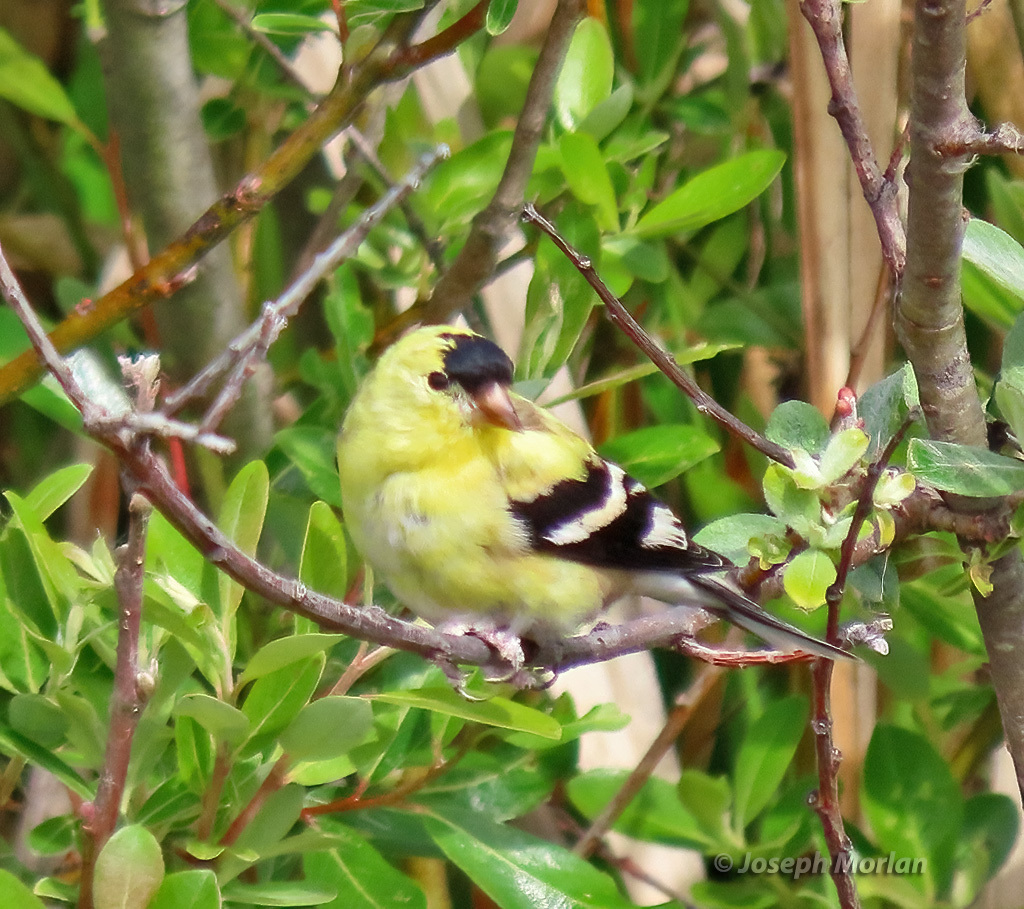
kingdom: Animalia
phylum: Chordata
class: Aves
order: Passeriformes
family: Fringillidae
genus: Spinus
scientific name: Spinus tristis
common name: American goldfinch
